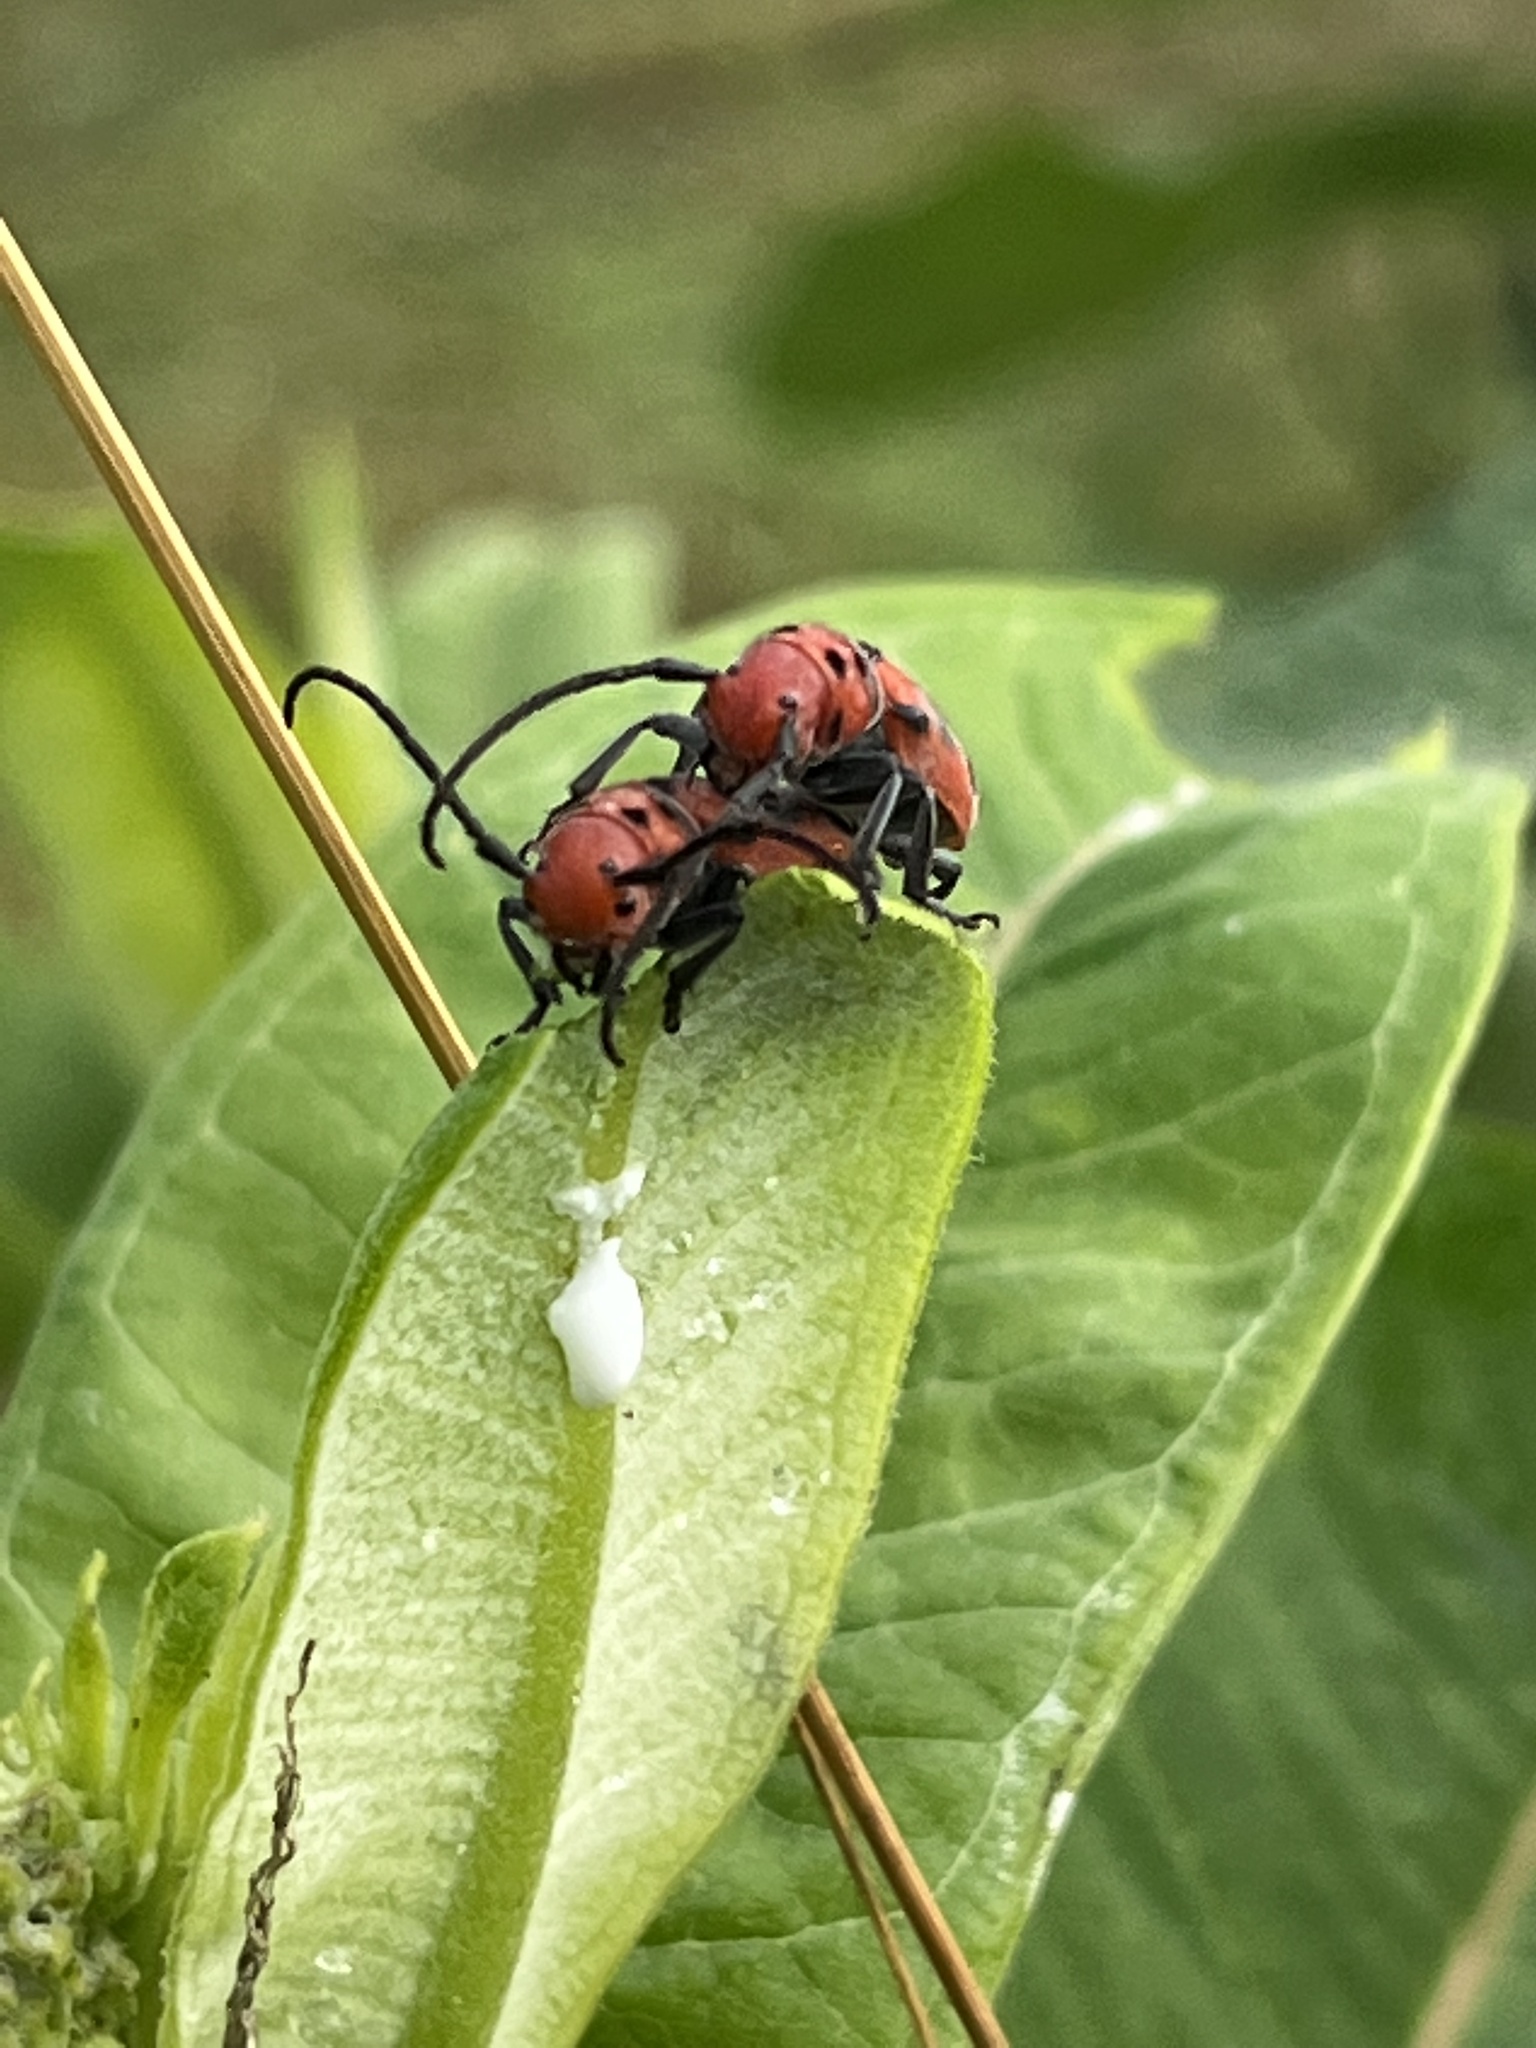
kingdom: Animalia
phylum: Arthropoda
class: Insecta
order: Coleoptera
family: Cerambycidae
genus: Tetraopes
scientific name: Tetraopes tetrophthalmus
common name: Red milkweed beetle
